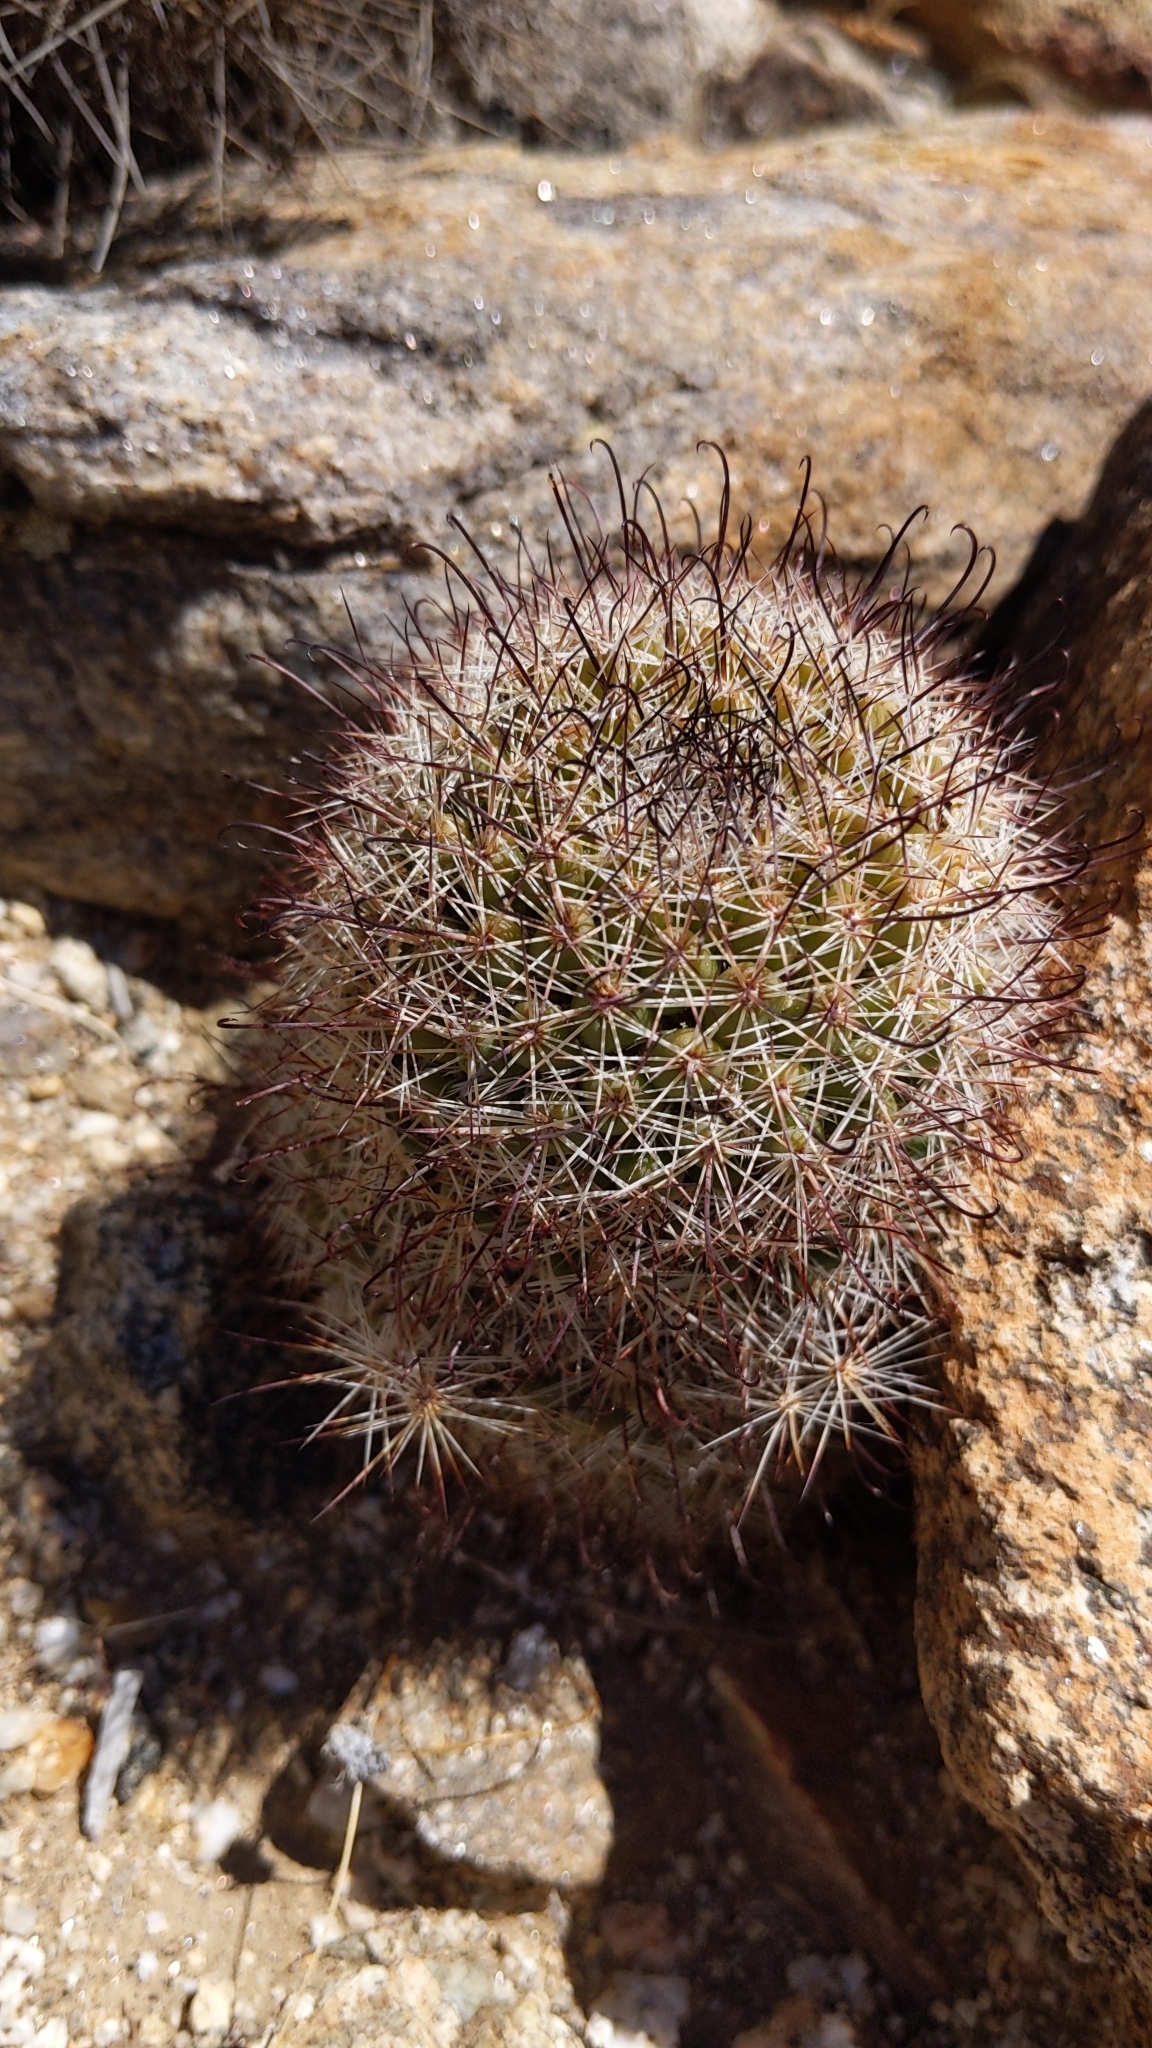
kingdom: Plantae
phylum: Tracheophyta
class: Magnoliopsida
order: Caryophyllales
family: Cactaceae
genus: Cochemiea
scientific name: Cochemiea dioica
